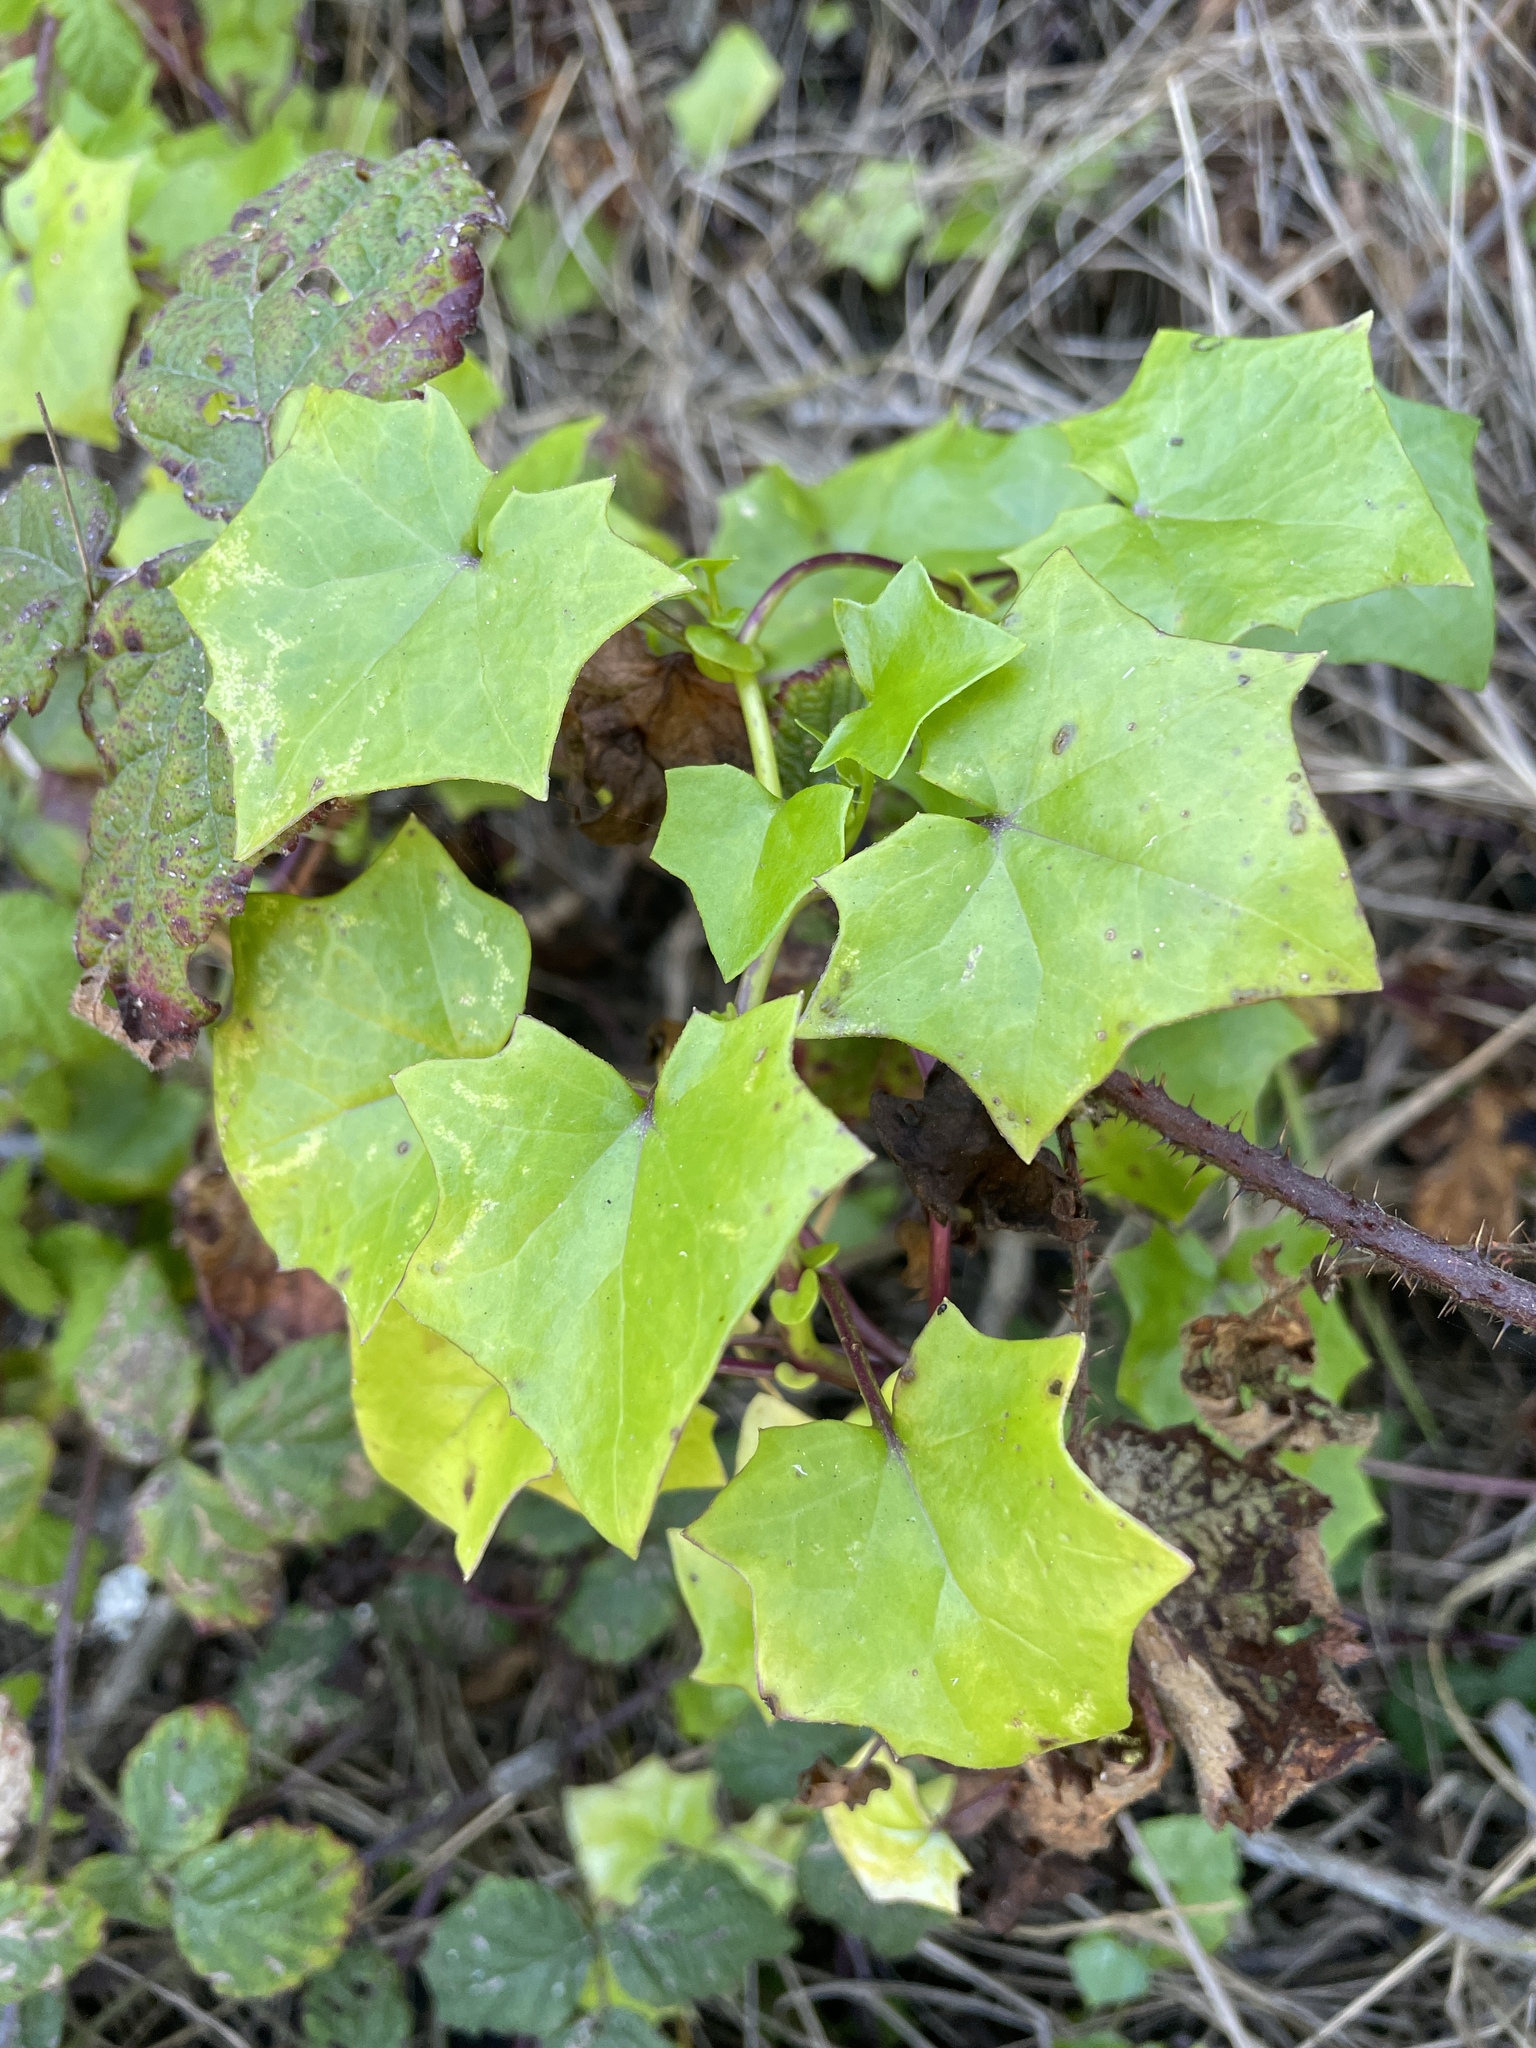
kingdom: Plantae
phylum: Tracheophyta
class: Magnoliopsida
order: Asterales
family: Asteraceae
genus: Delairea
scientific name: Delairea odorata
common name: Cape-ivy
